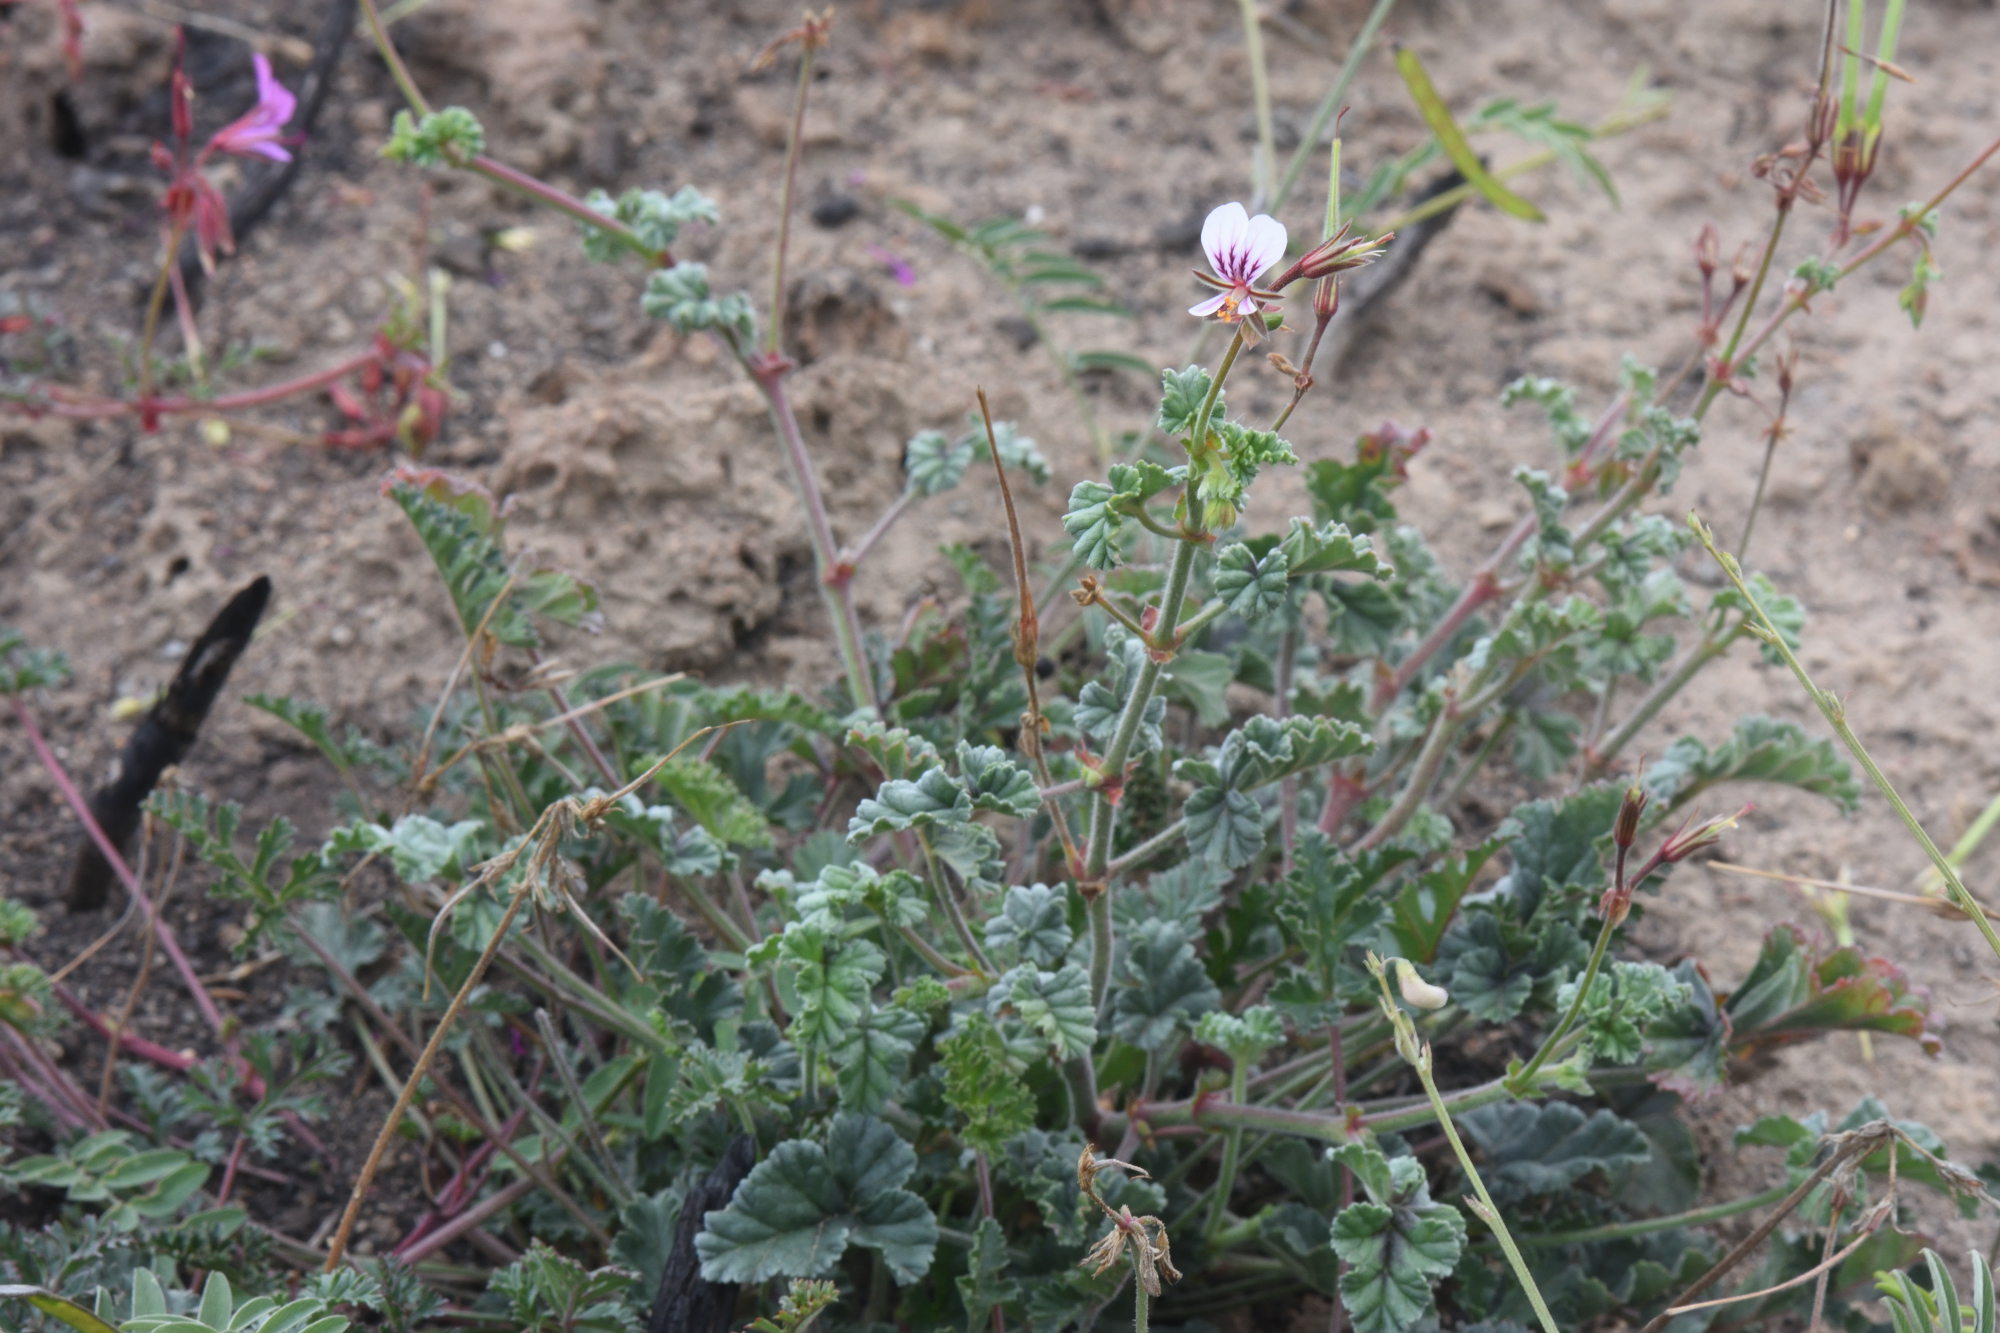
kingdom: Plantae
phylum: Tracheophyta
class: Magnoliopsida
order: Geraniales
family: Geraniaceae
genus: Pelargonium
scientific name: Pelargonium candicans
